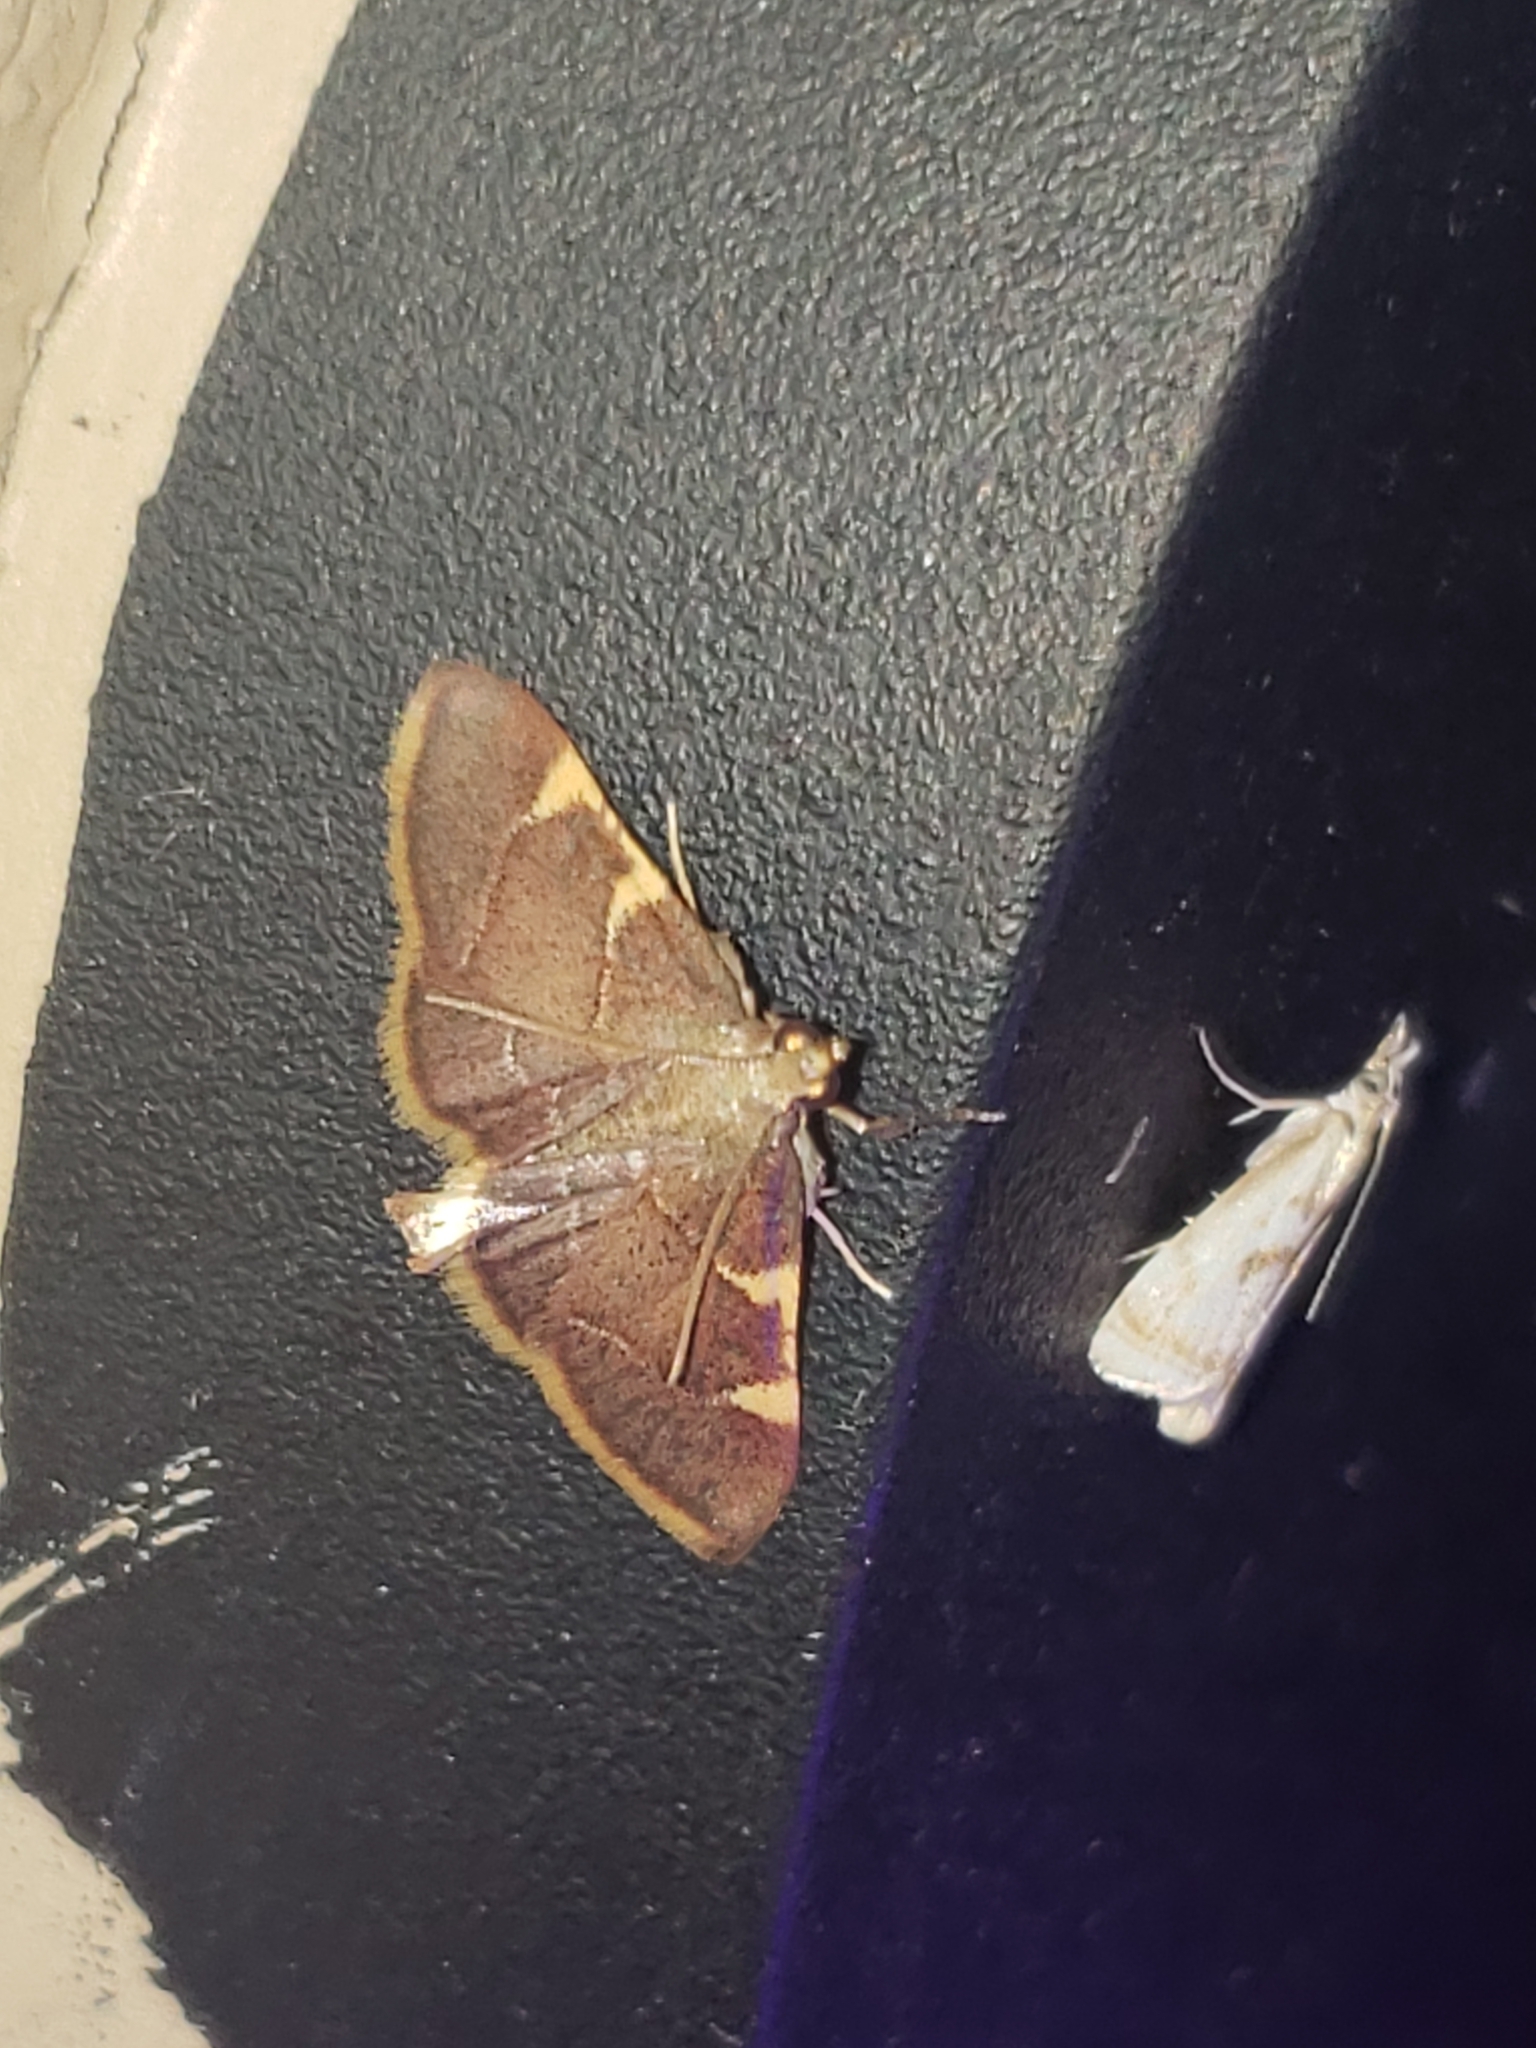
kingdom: Animalia
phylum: Arthropoda
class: Insecta
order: Lepidoptera
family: Pyralidae
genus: Hypsopygia
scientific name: Hypsopygia olinalis
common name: Yellow-fringed dolichomia moth
